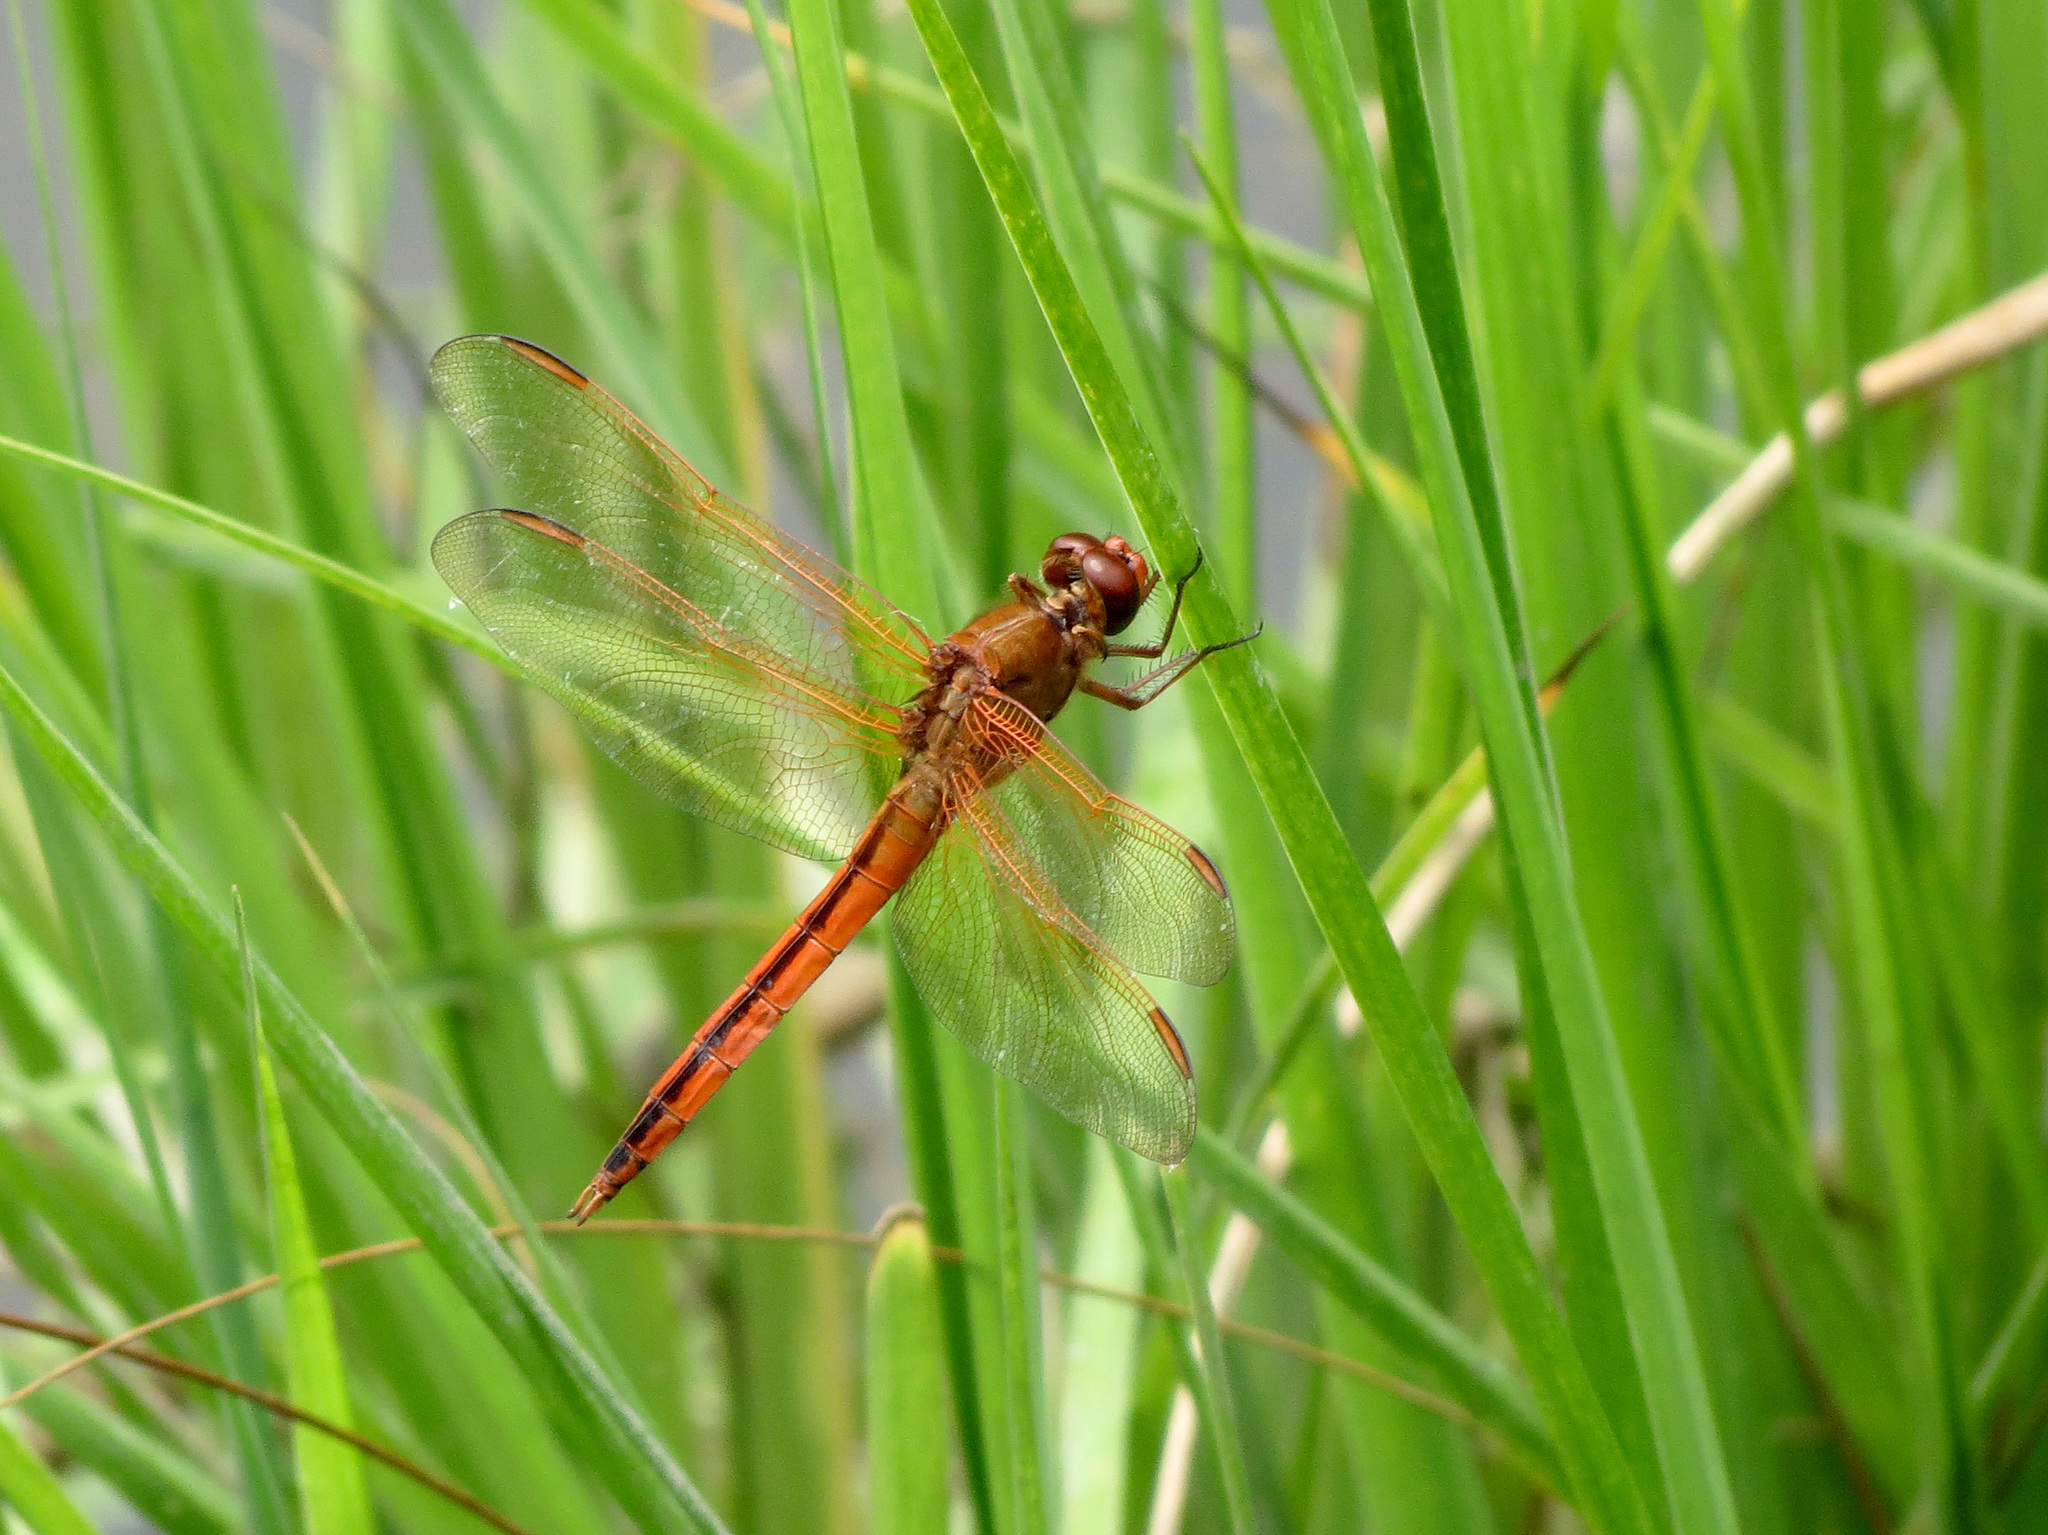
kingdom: Animalia
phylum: Arthropoda
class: Insecta
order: Odonata
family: Libellulidae
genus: Libellula
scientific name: Libellula needhami
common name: Needham's skimmer
